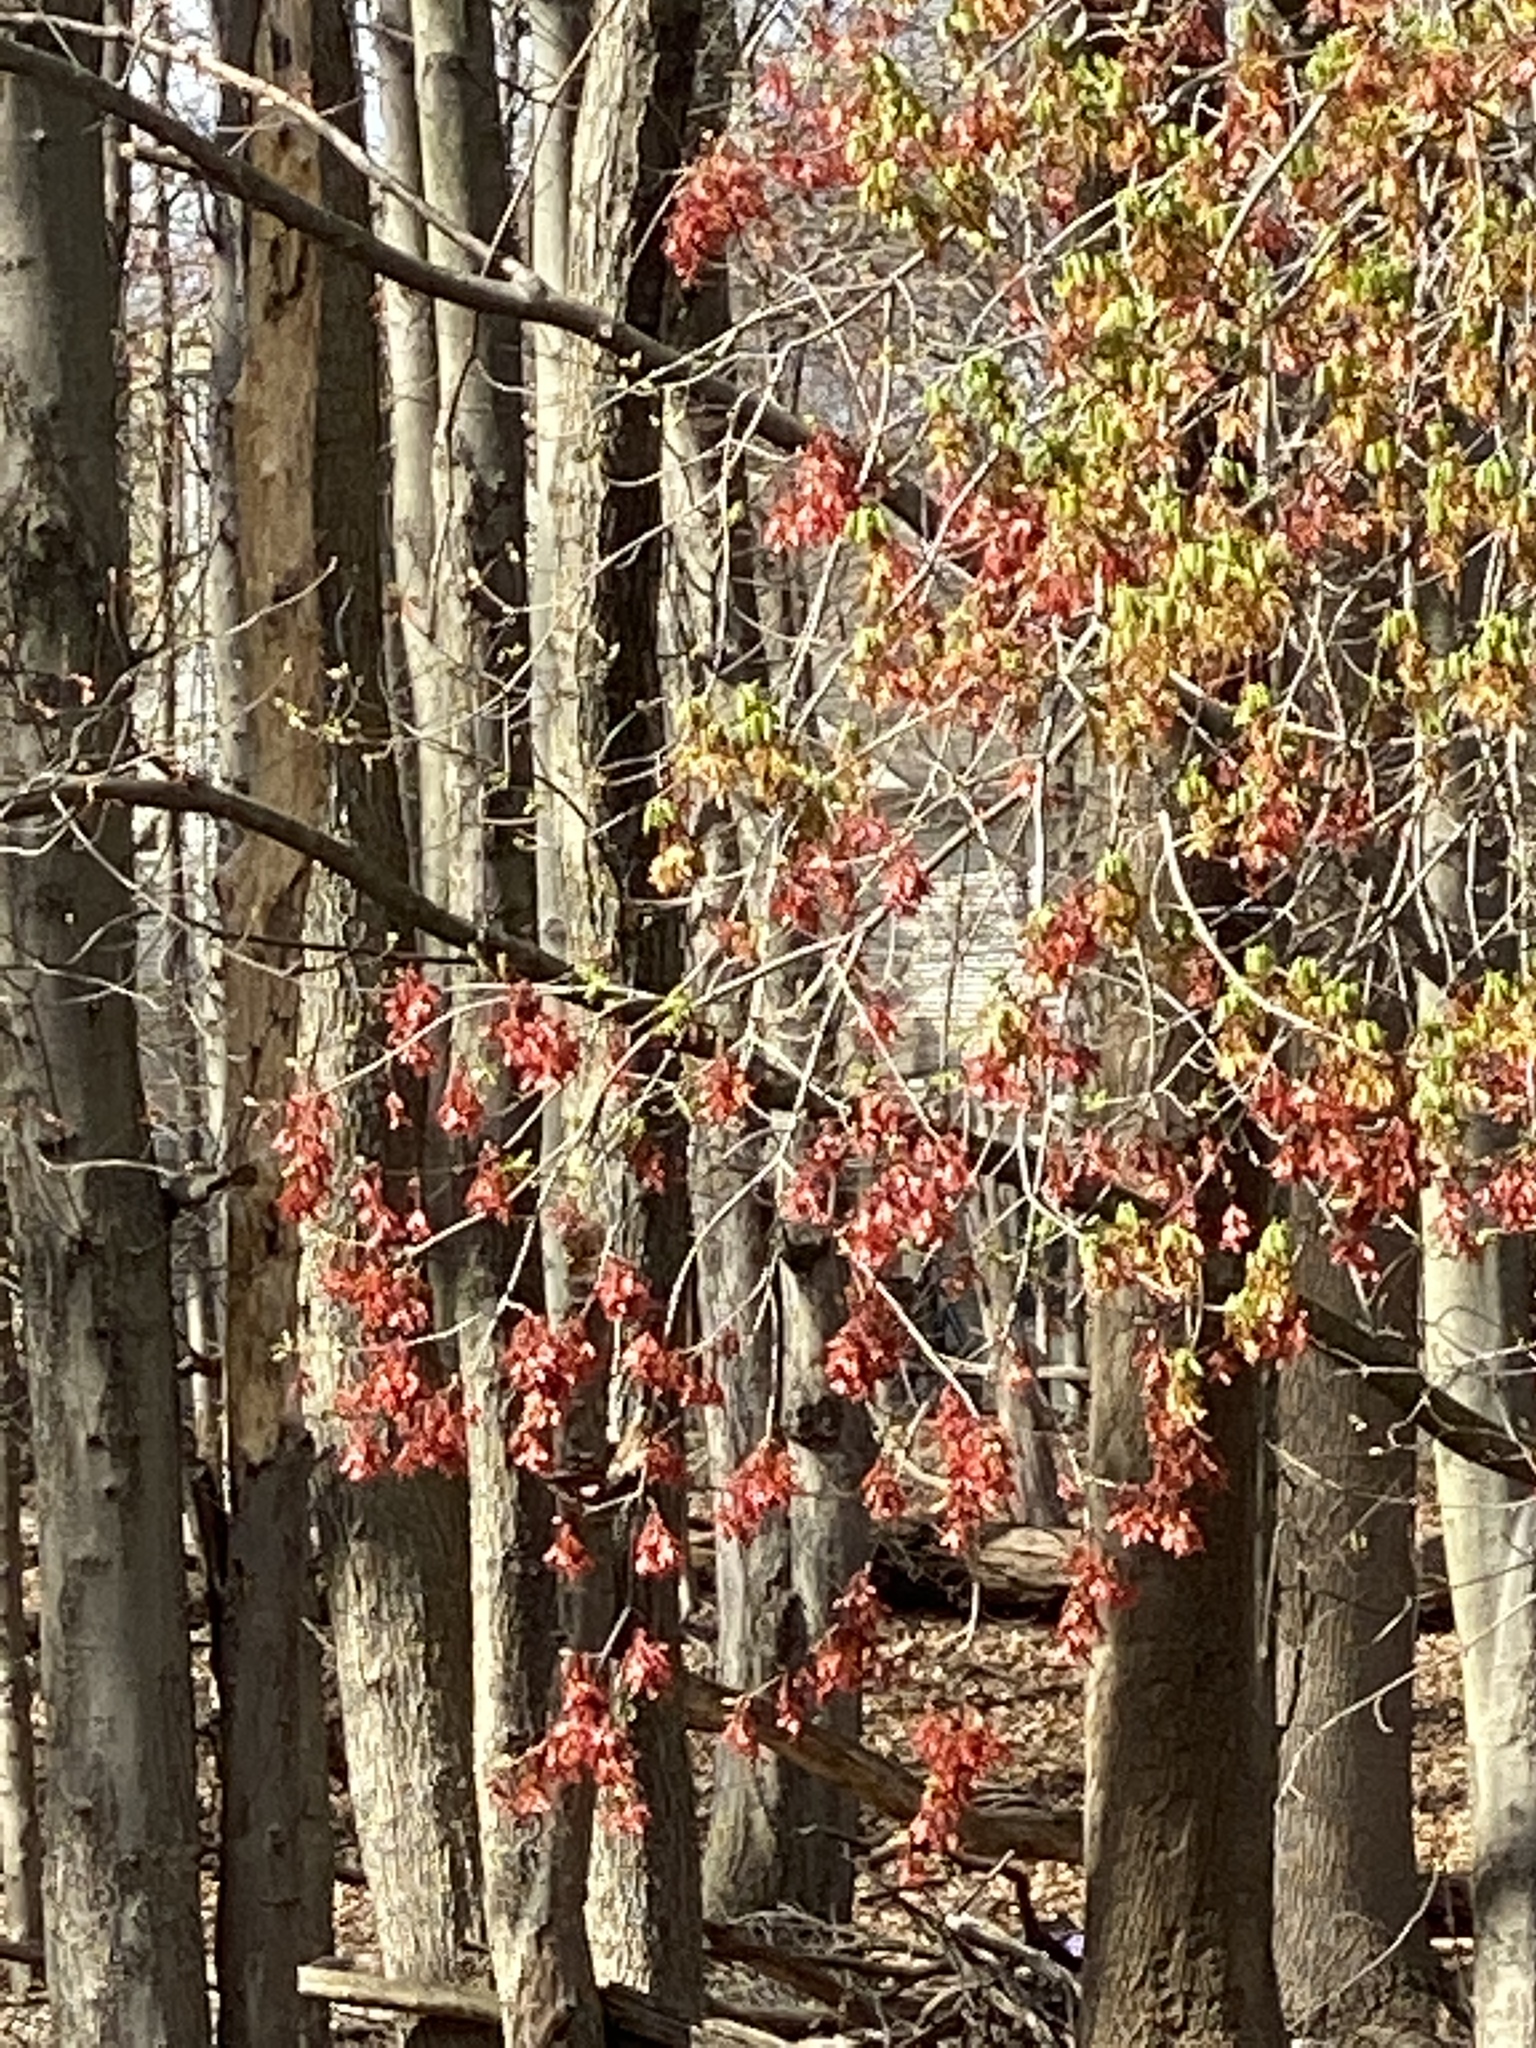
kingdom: Plantae
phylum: Tracheophyta
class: Magnoliopsida
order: Sapindales
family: Sapindaceae
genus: Acer
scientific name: Acer rubrum
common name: Red maple
